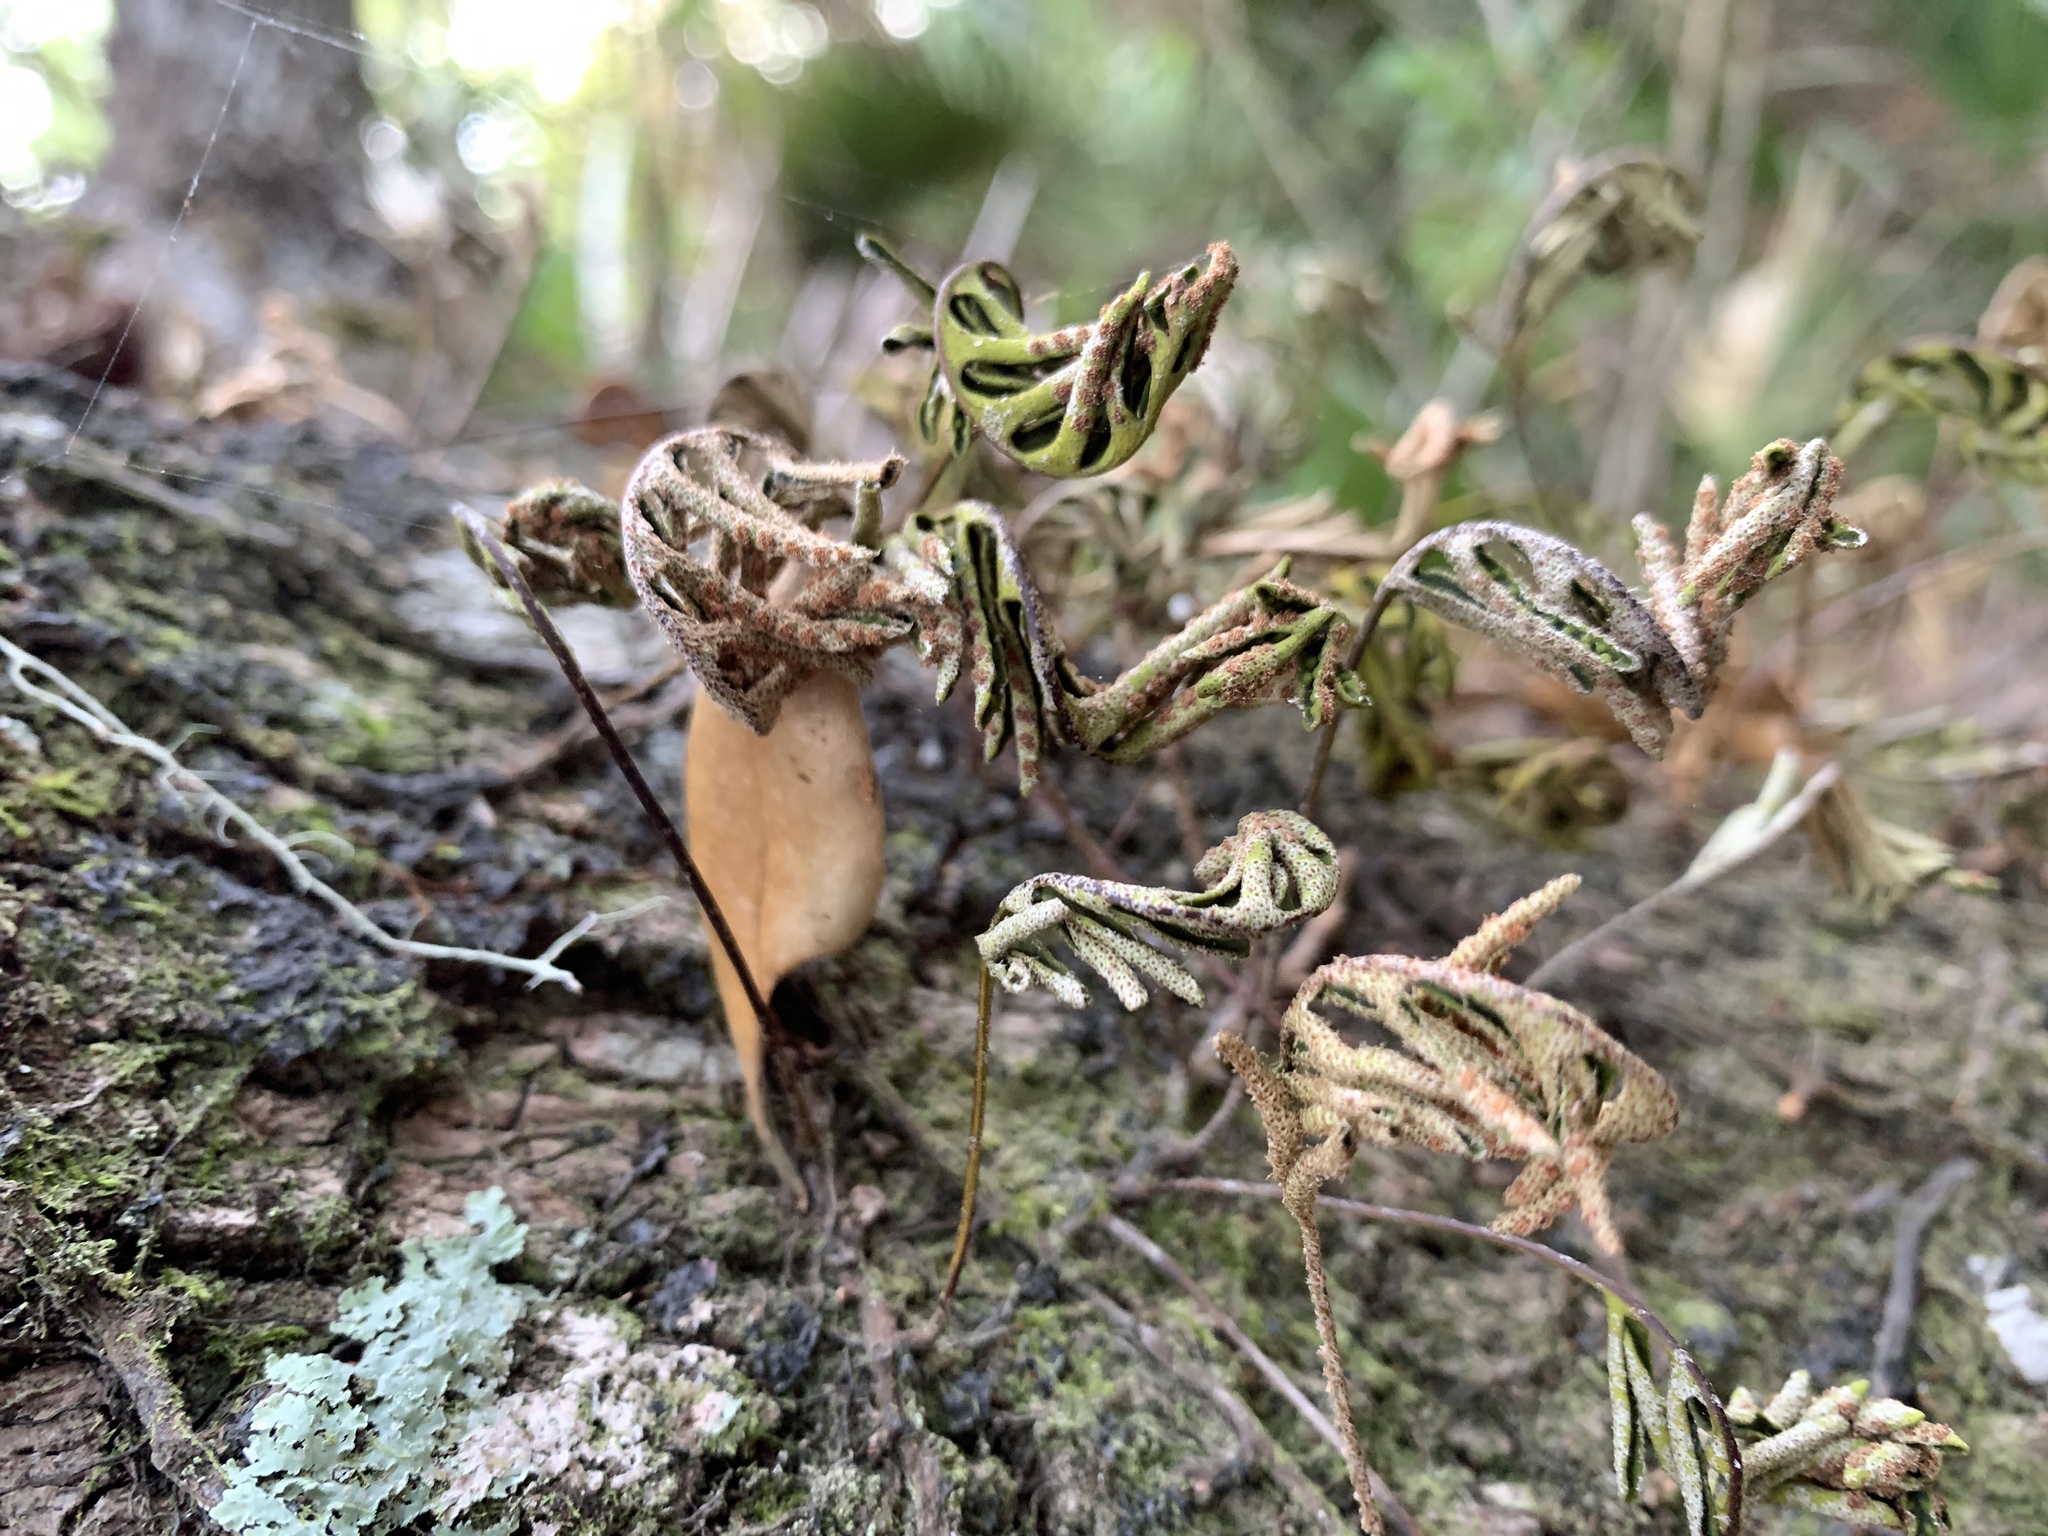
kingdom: Plantae
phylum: Tracheophyta
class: Polypodiopsida
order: Polypodiales
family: Polypodiaceae
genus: Pleopeltis
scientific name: Pleopeltis michauxiana
